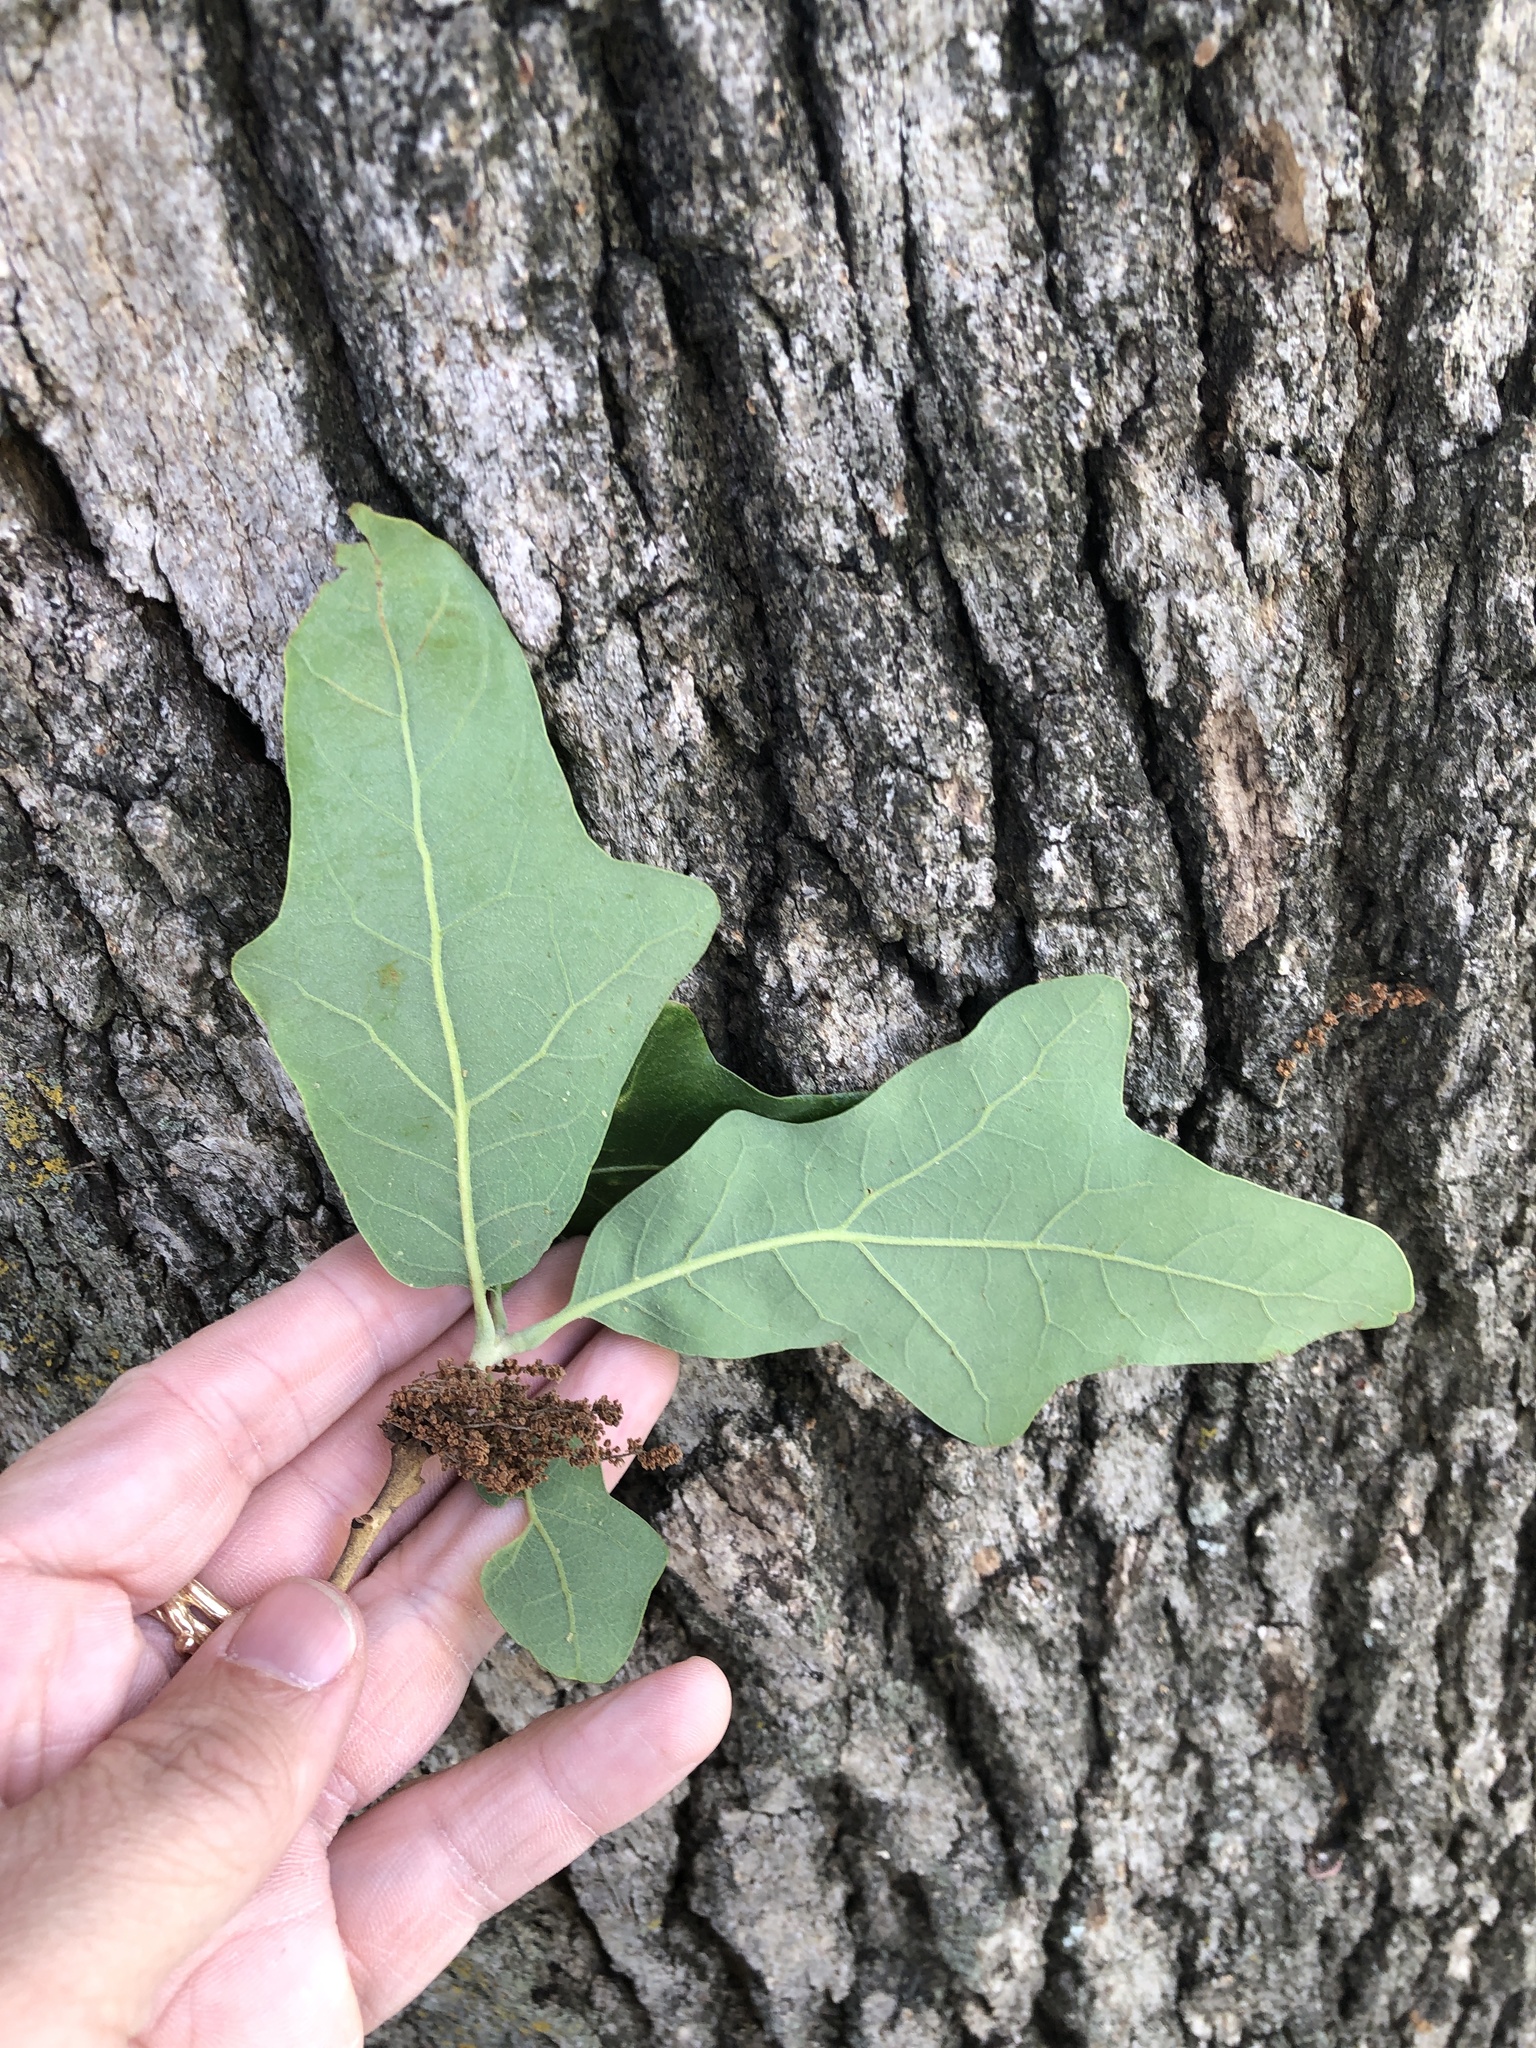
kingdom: Plantae
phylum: Tracheophyta
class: Magnoliopsida
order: Fagales
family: Fagaceae
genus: Quercus
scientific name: Quercus stellata
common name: Post oak
